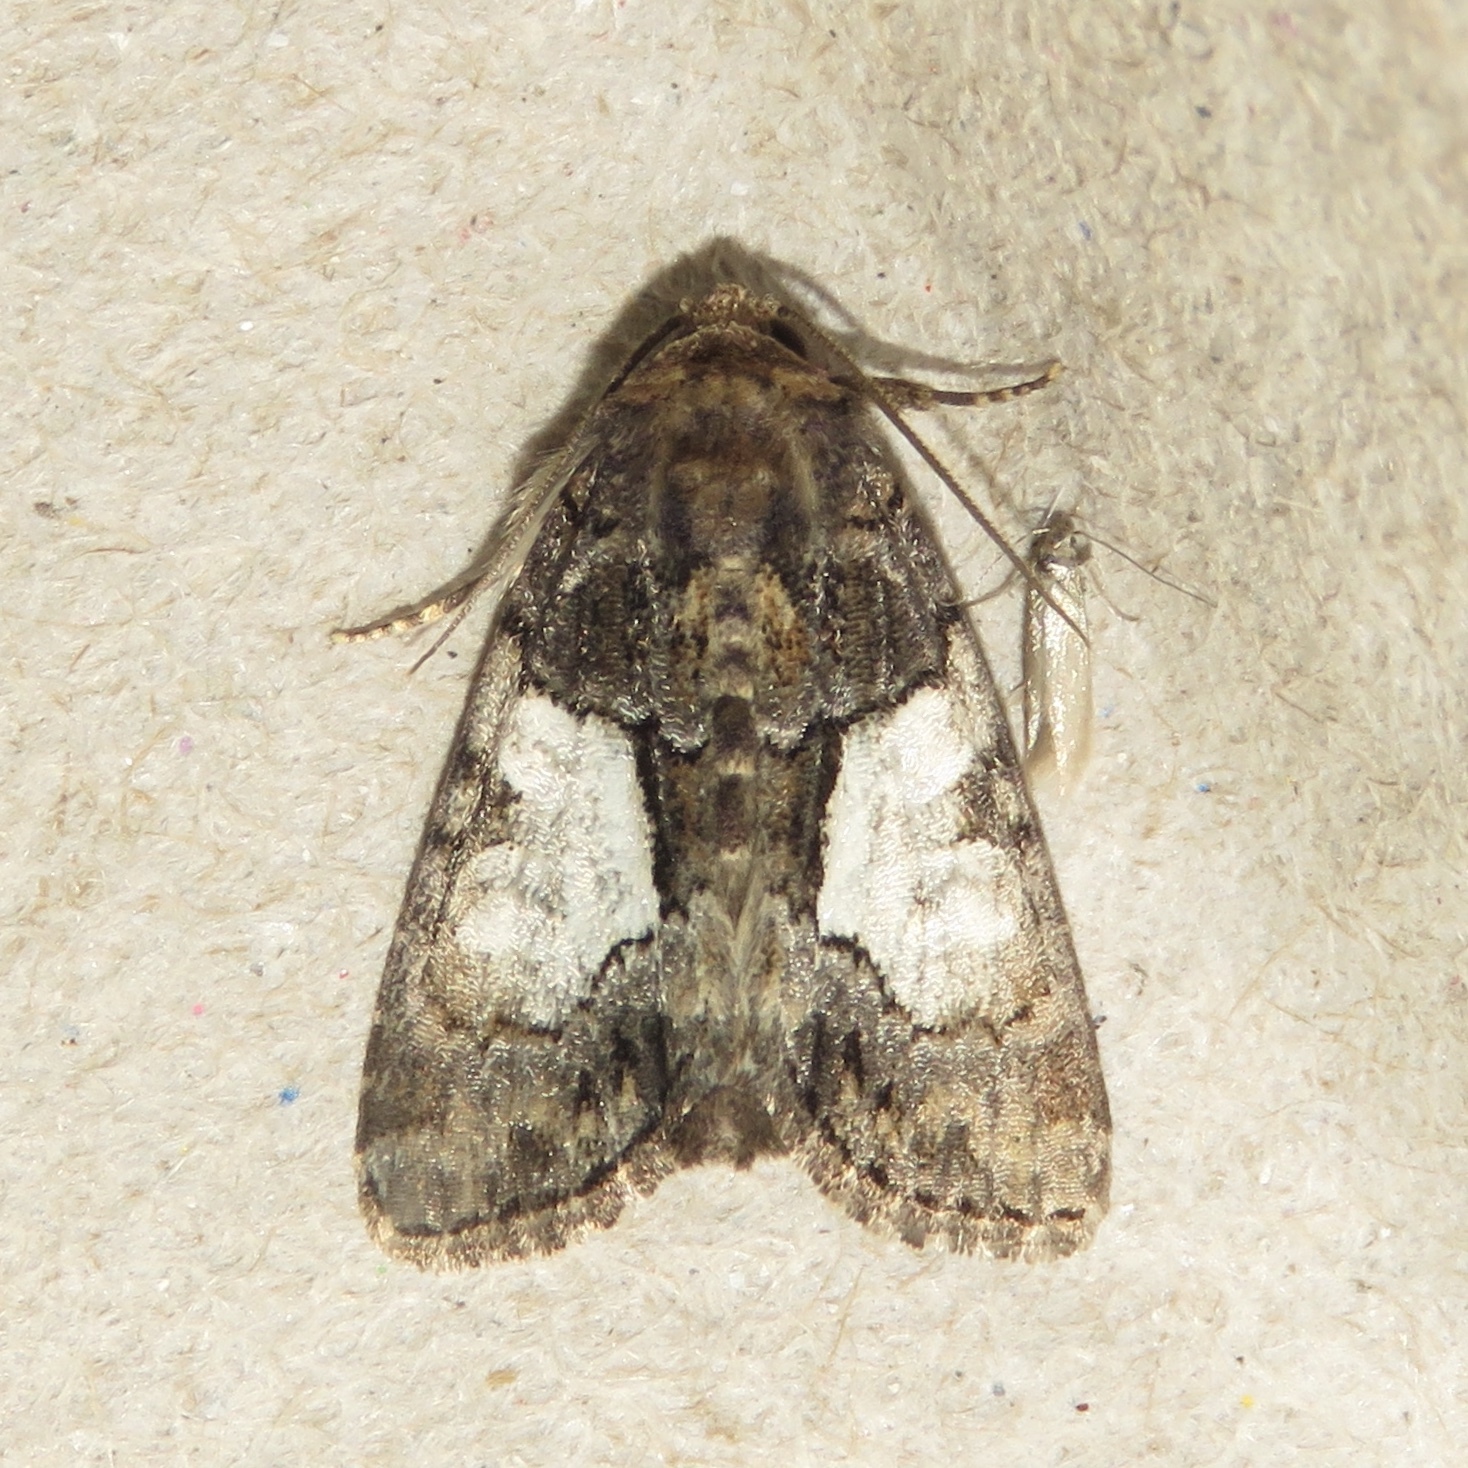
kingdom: Animalia
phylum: Arthropoda
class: Insecta
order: Lepidoptera
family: Noctuidae
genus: Chytonix
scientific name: Chytonix palliatricula
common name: Cloaked marvel
